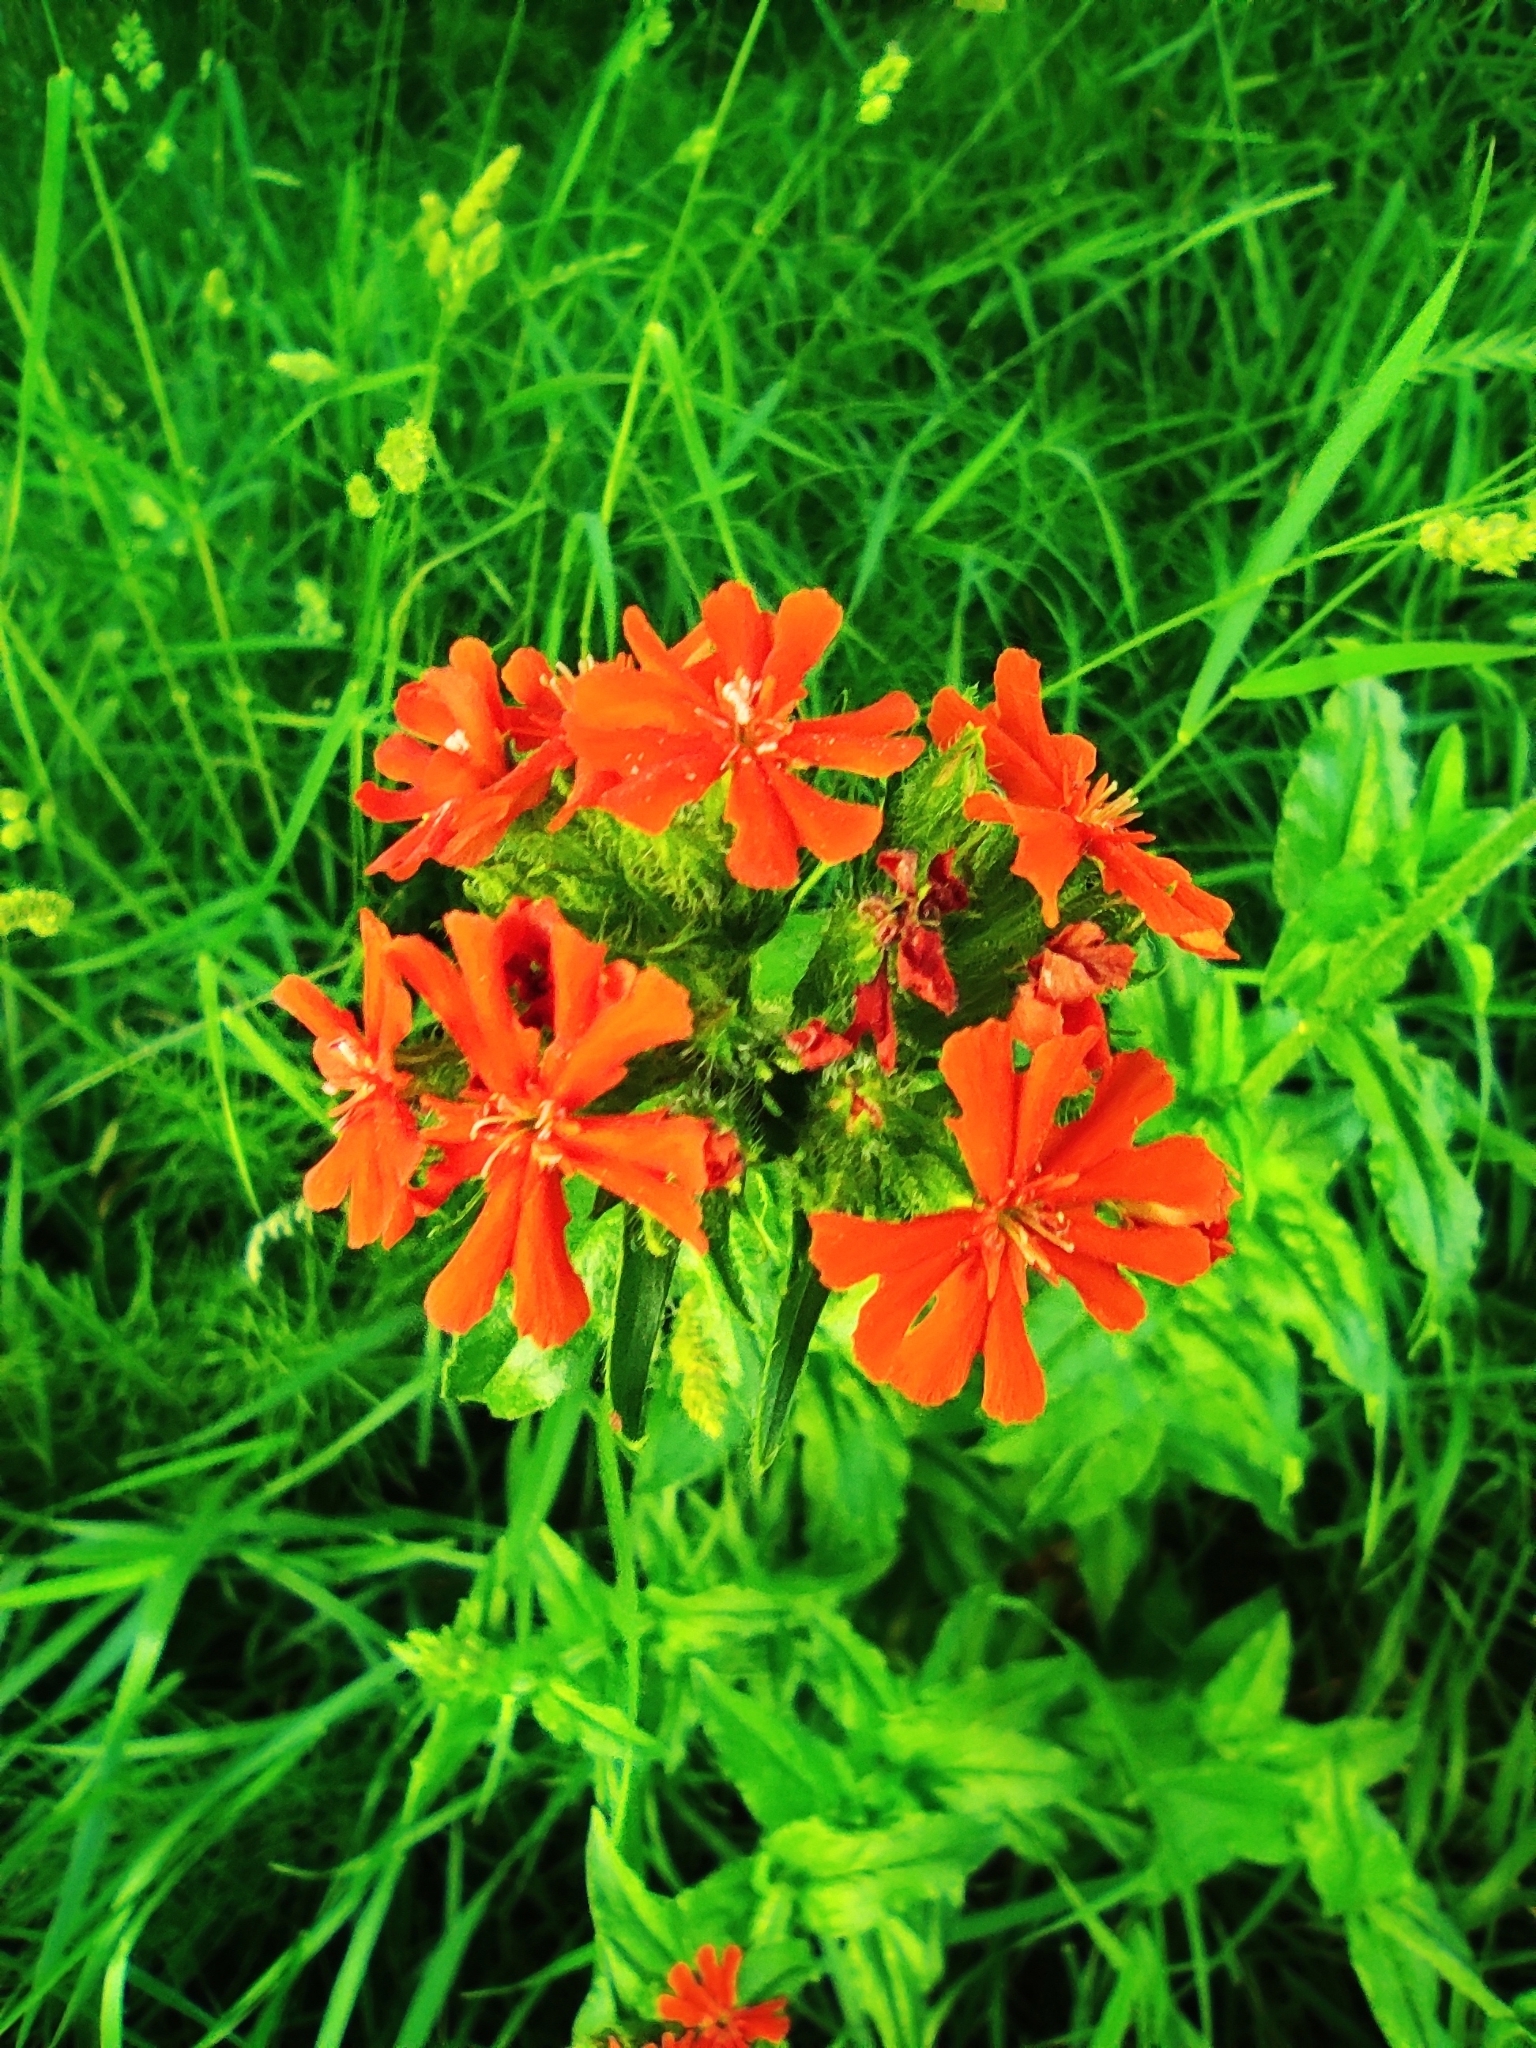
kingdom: Plantae
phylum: Tracheophyta
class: Magnoliopsida
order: Caryophyllales
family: Caryophyllaceae
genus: Silene
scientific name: Silene chalcedonica
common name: Maltese-cross
